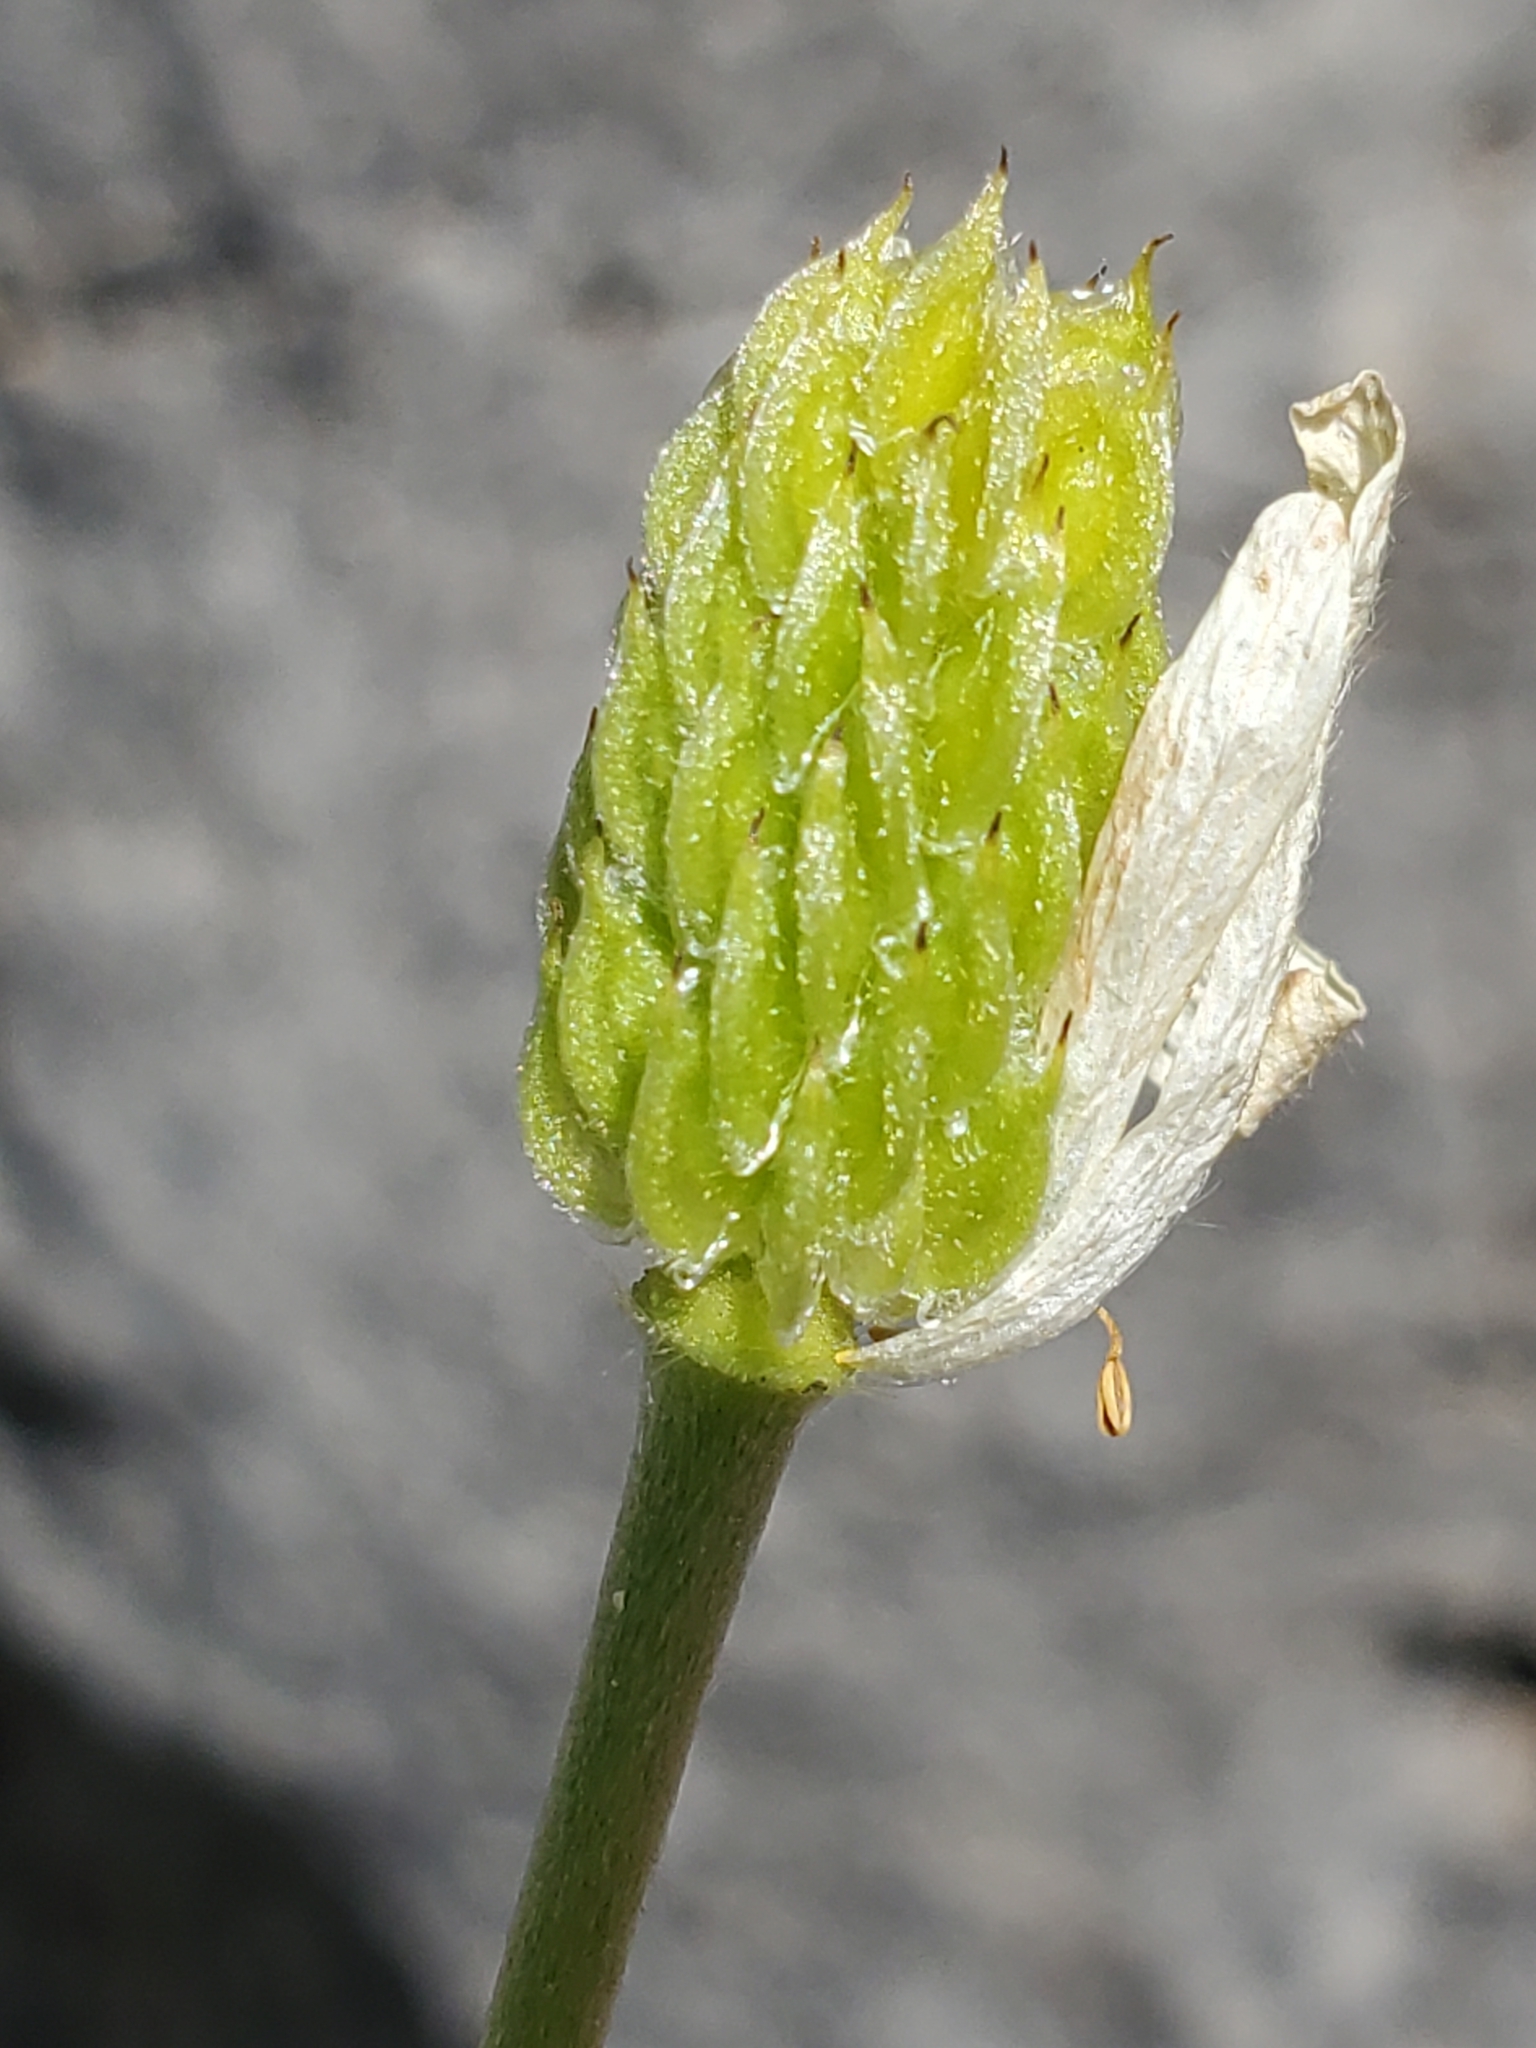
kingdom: Plantae
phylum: Tracheophyta
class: Magnoliopsida
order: Ranunculales
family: Ranunculaceae
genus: Anemone
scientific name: Anemone edwardsiana
